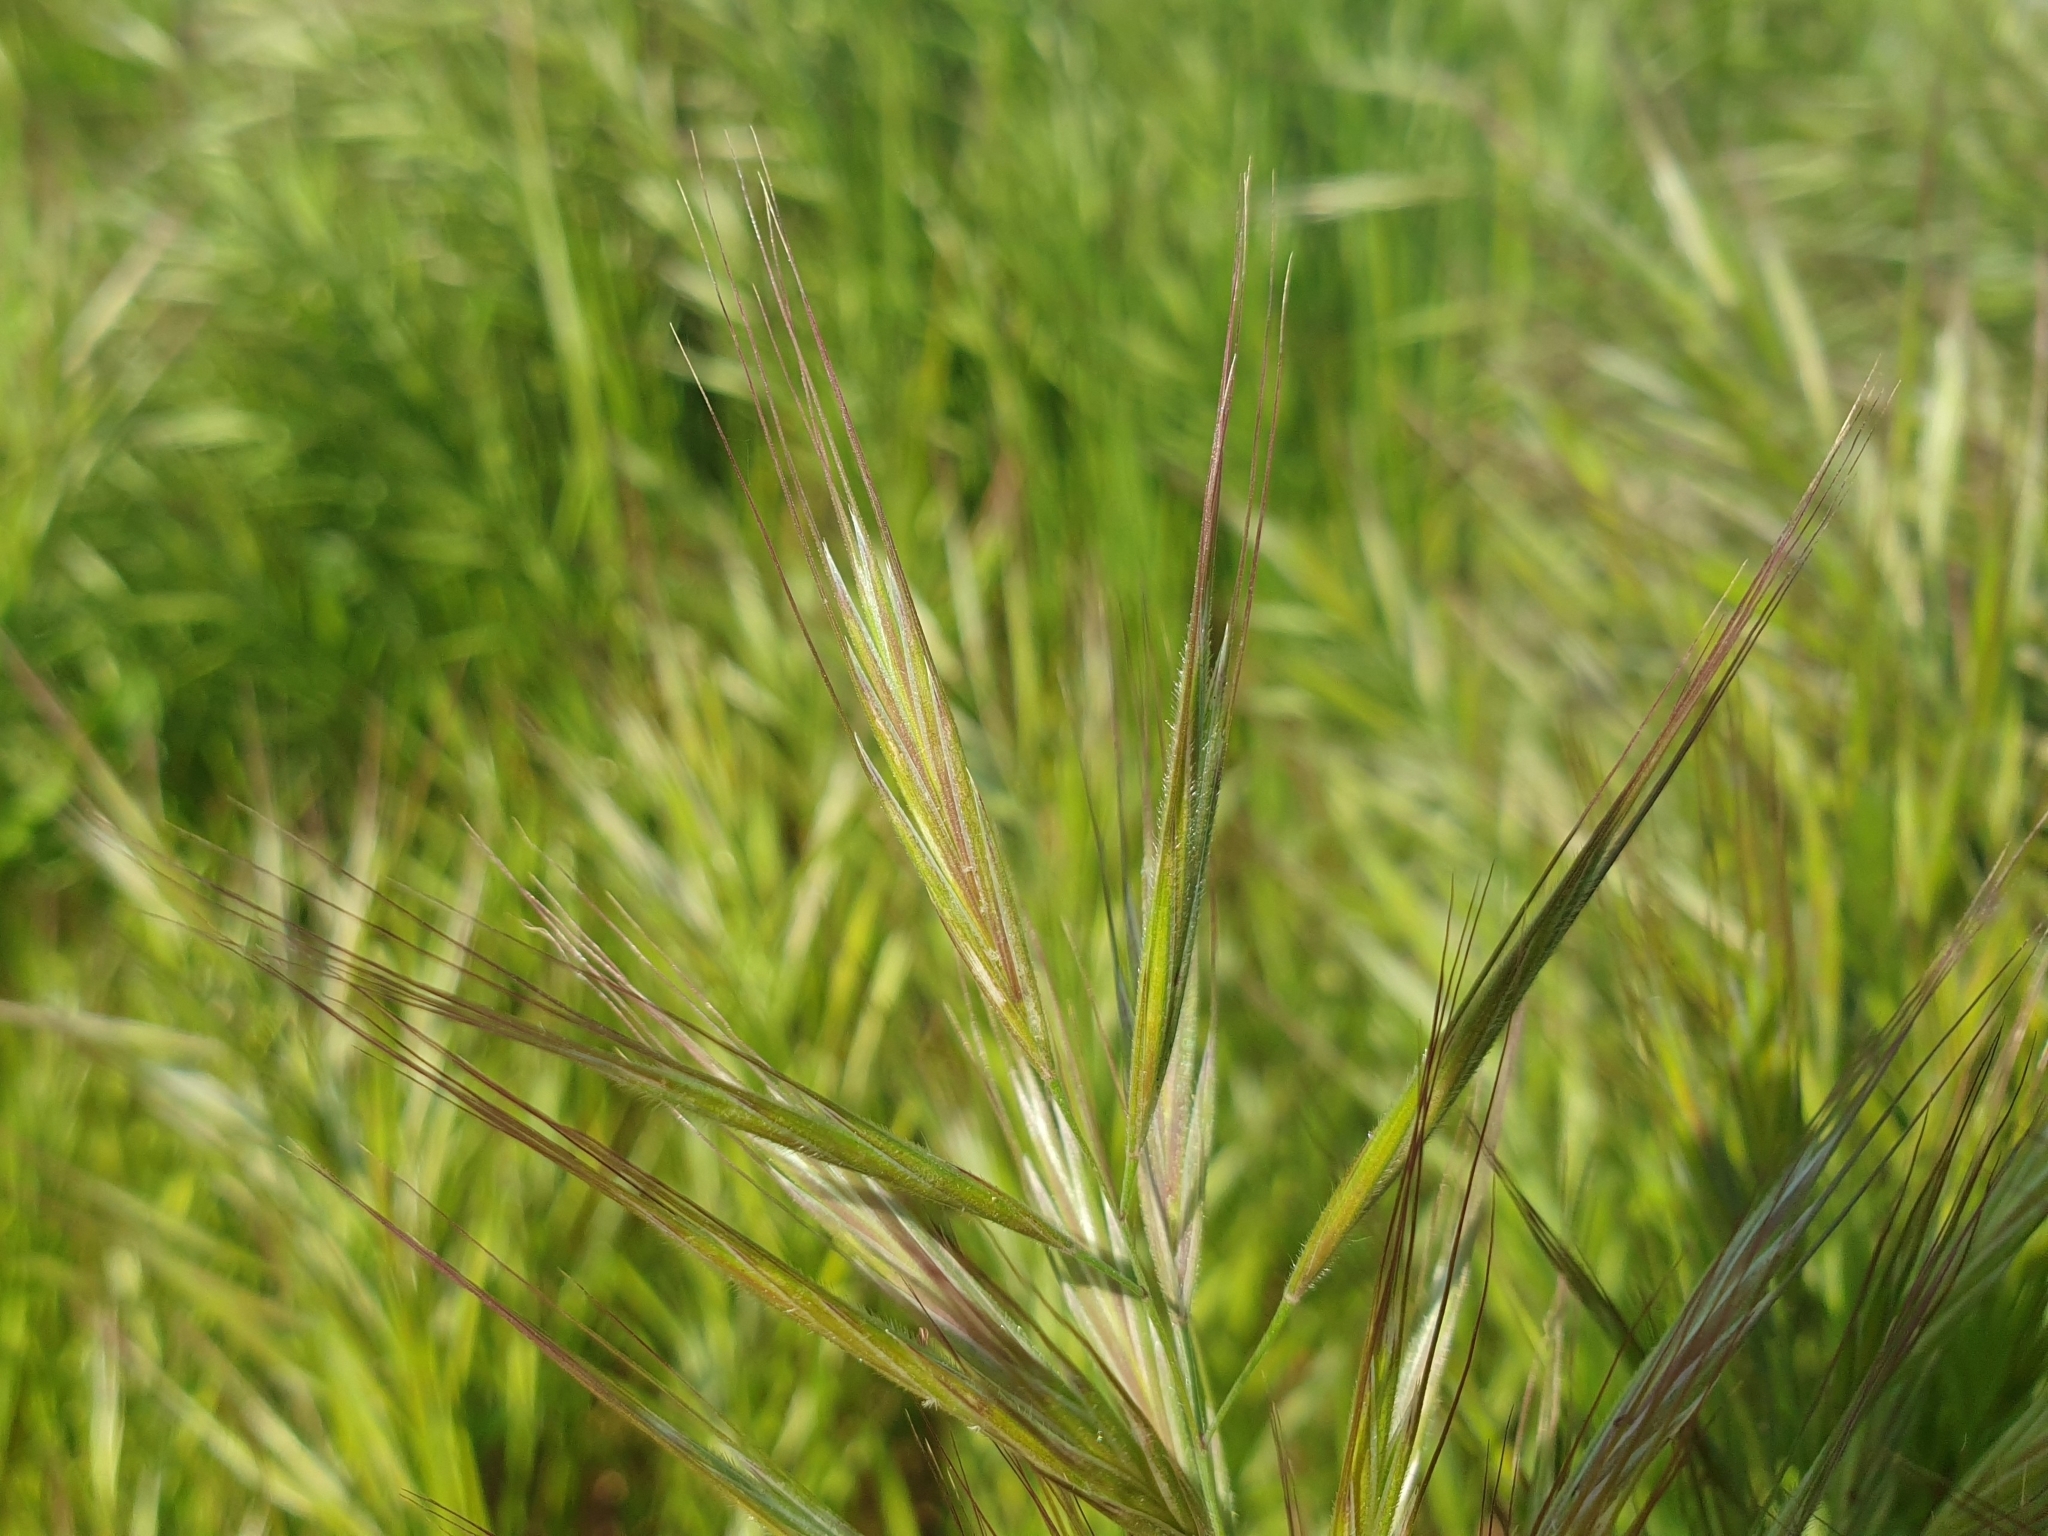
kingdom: Plantae
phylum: Tracheophyta
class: Liliopsida
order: Poales
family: Poaceae
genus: Bromus
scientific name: Bromus madritensis
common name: Compact brome
